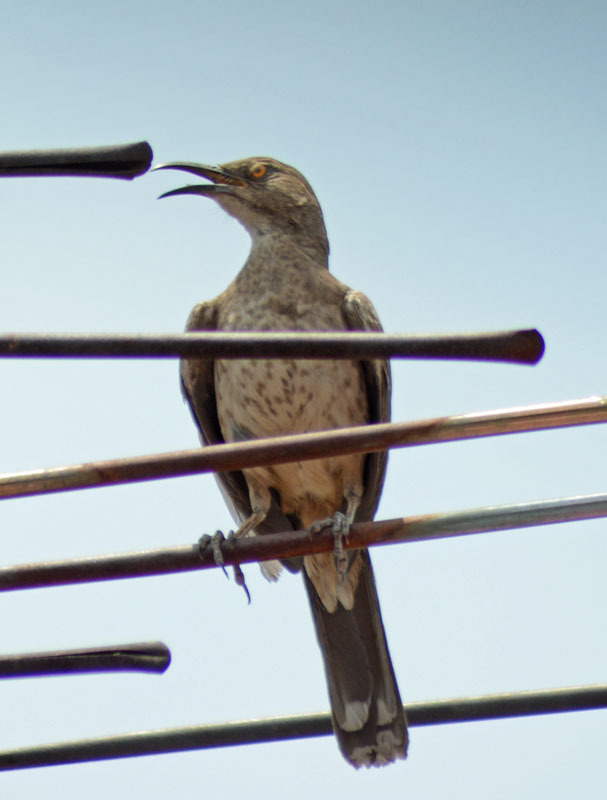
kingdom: Animalia
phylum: Chordata
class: Aves
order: Passeriformes
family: Mimidae
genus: Toxostoma
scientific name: Toxostoma curvirostre
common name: Curve-billed thrasher
